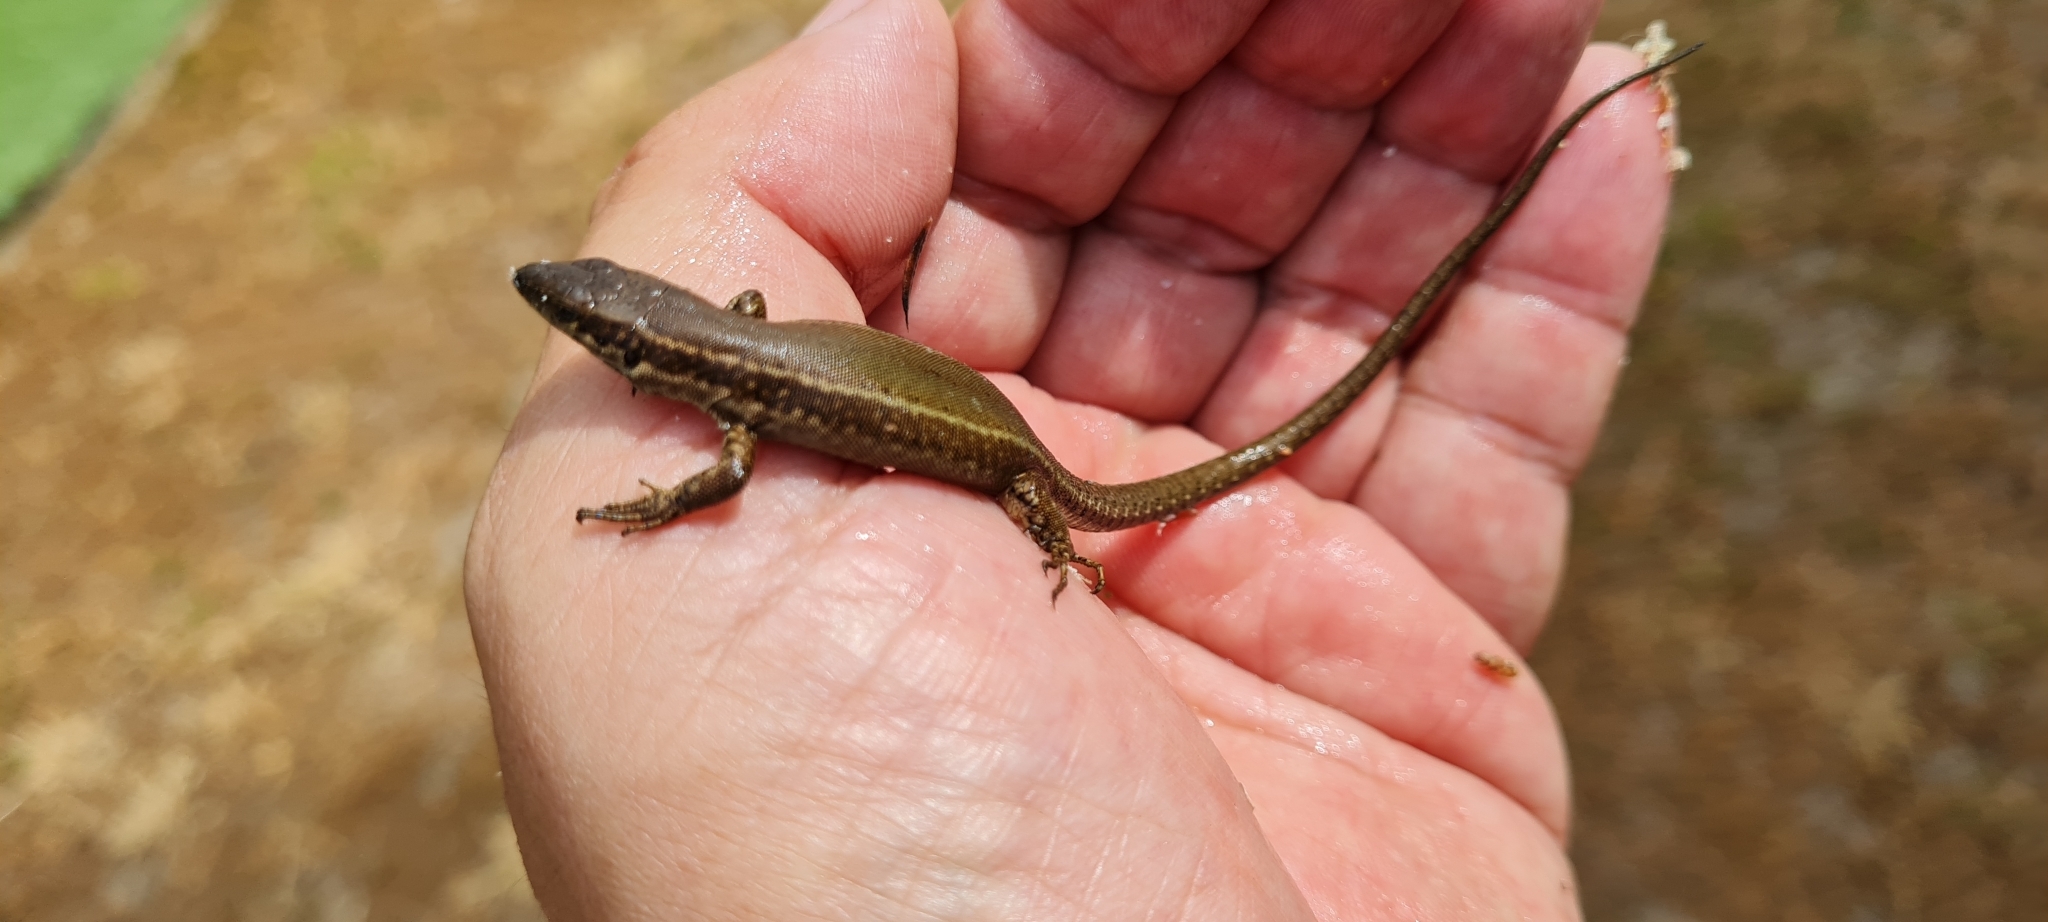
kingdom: Animalia
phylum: Chordata
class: Squamata
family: Lacertidae
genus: Podarcis
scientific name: Podarcis liolepis
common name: Catalonian wall lizard
